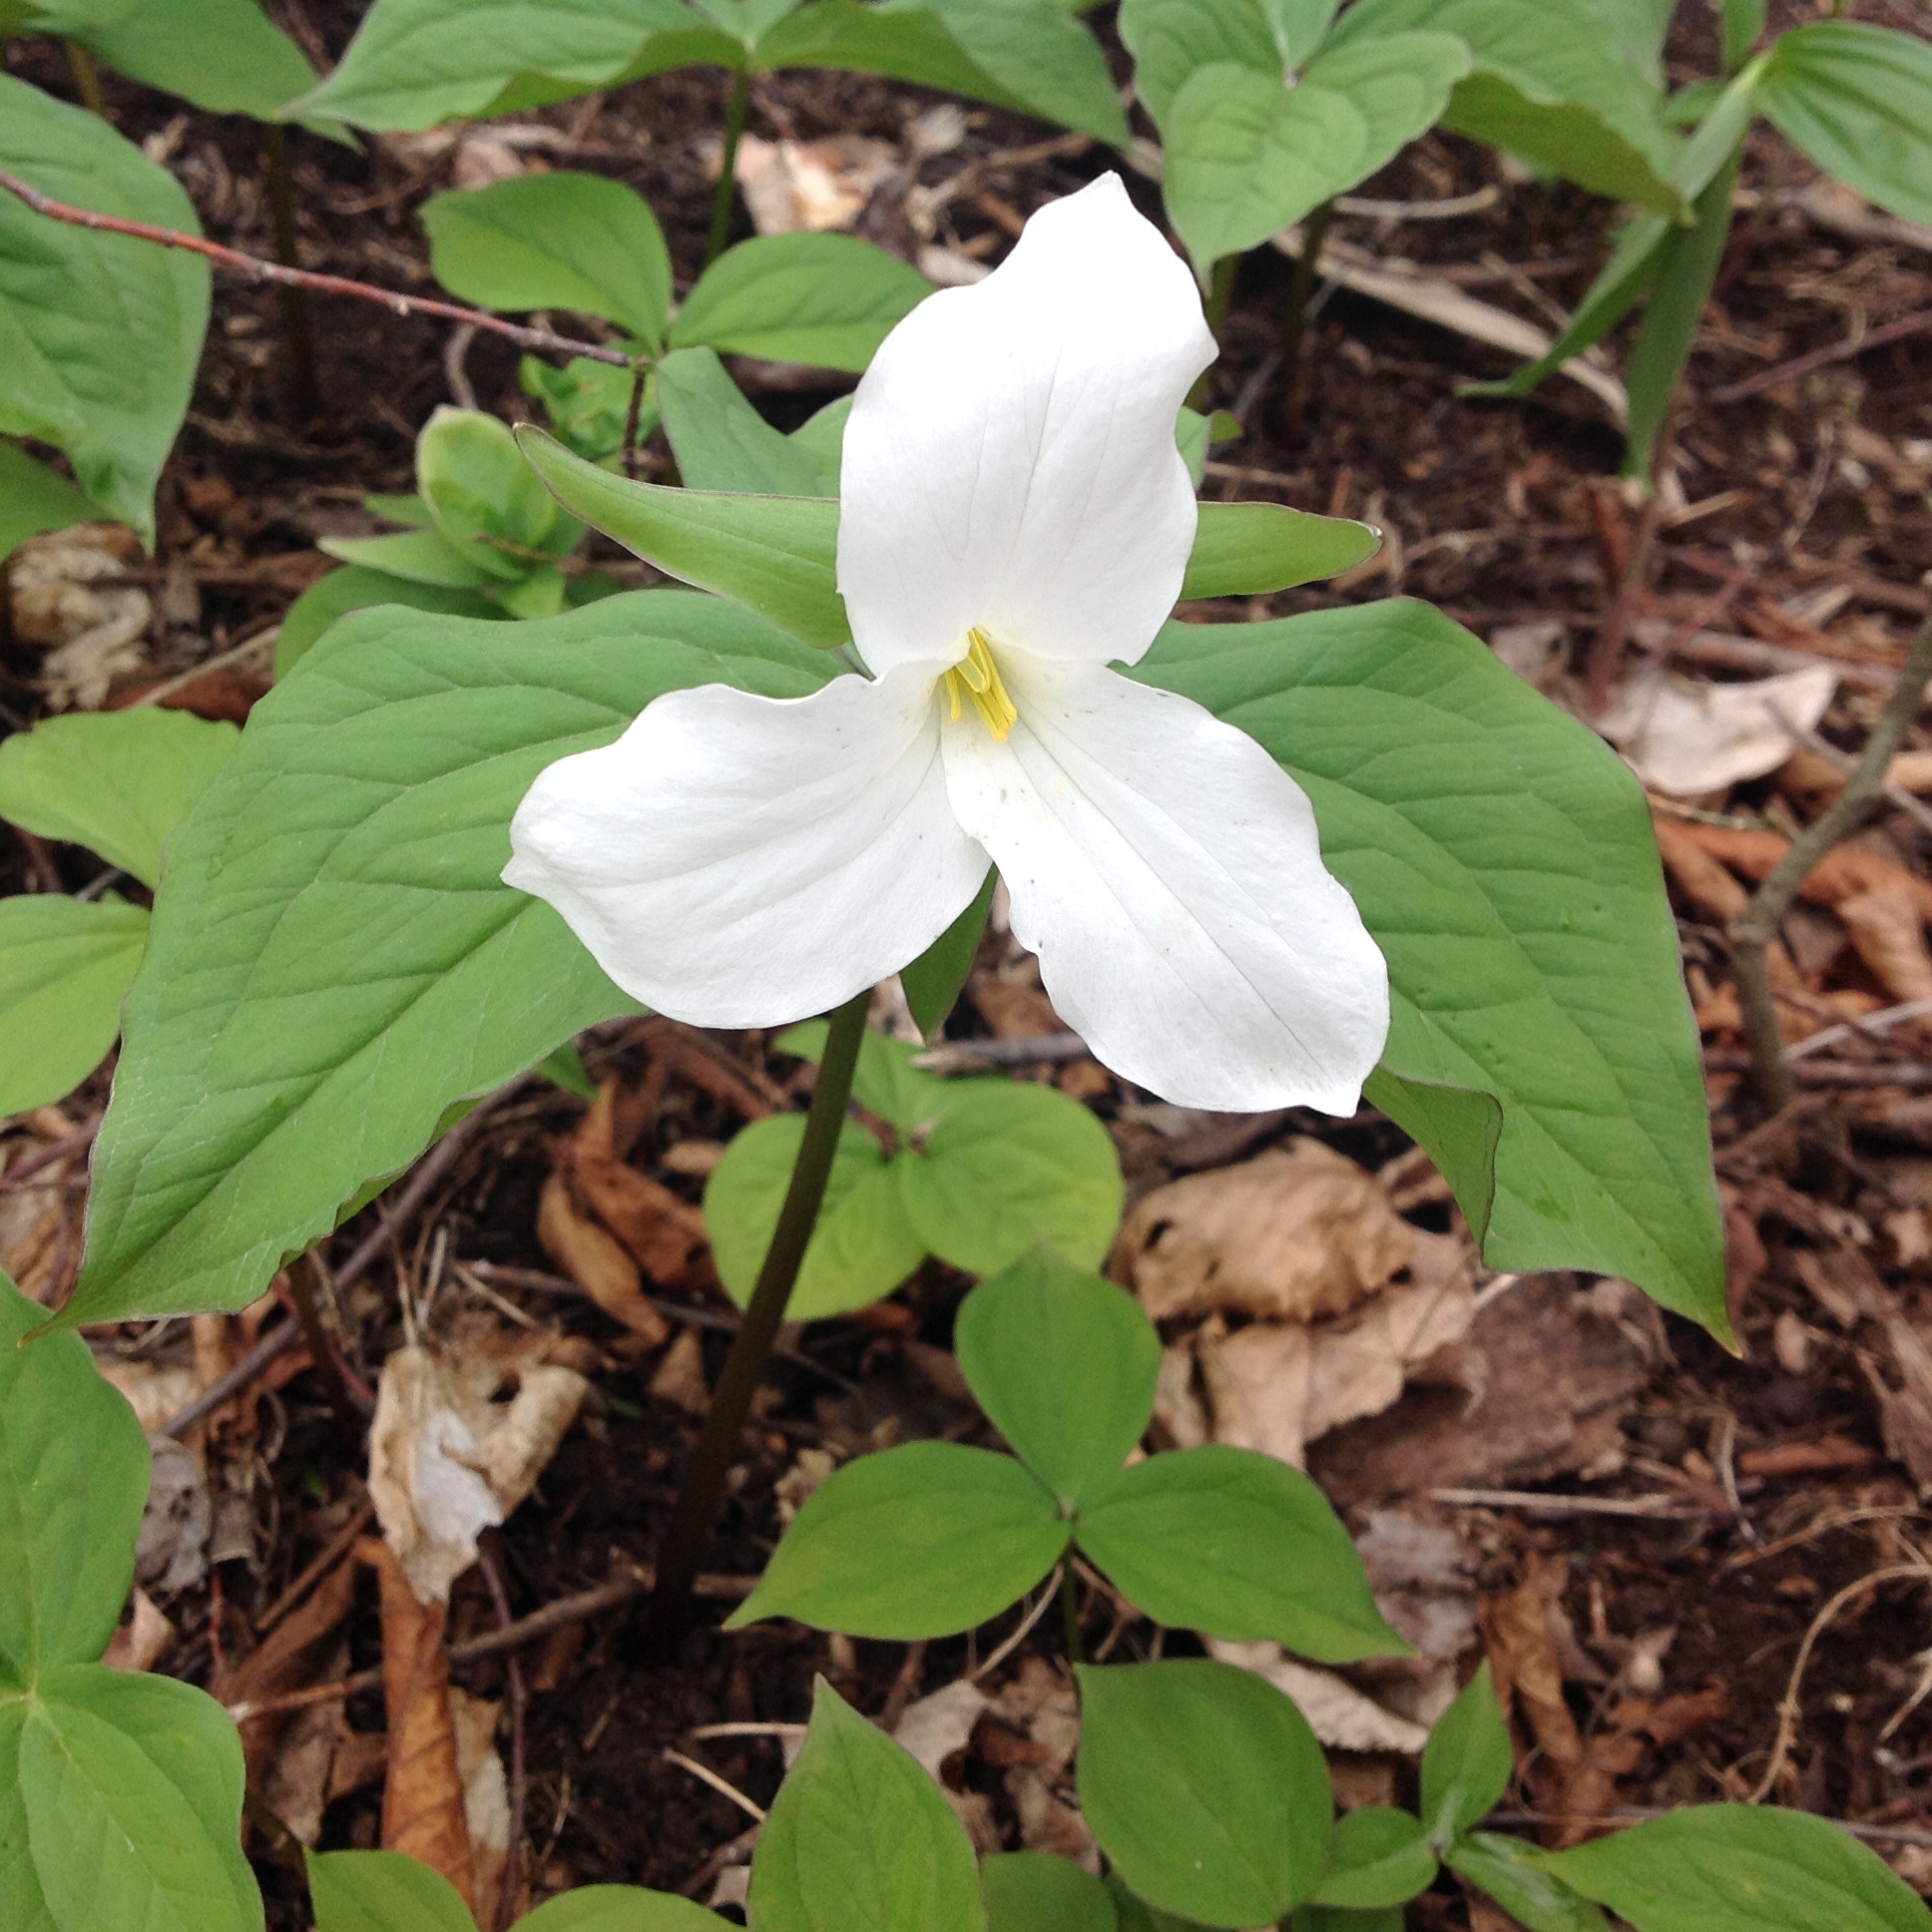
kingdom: Plantae
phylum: Tracheophyta
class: Liliopsida
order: Liliales
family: Melanthiaceae
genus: Trillium
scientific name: Trillium grandiflorum
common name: Great white trillium
